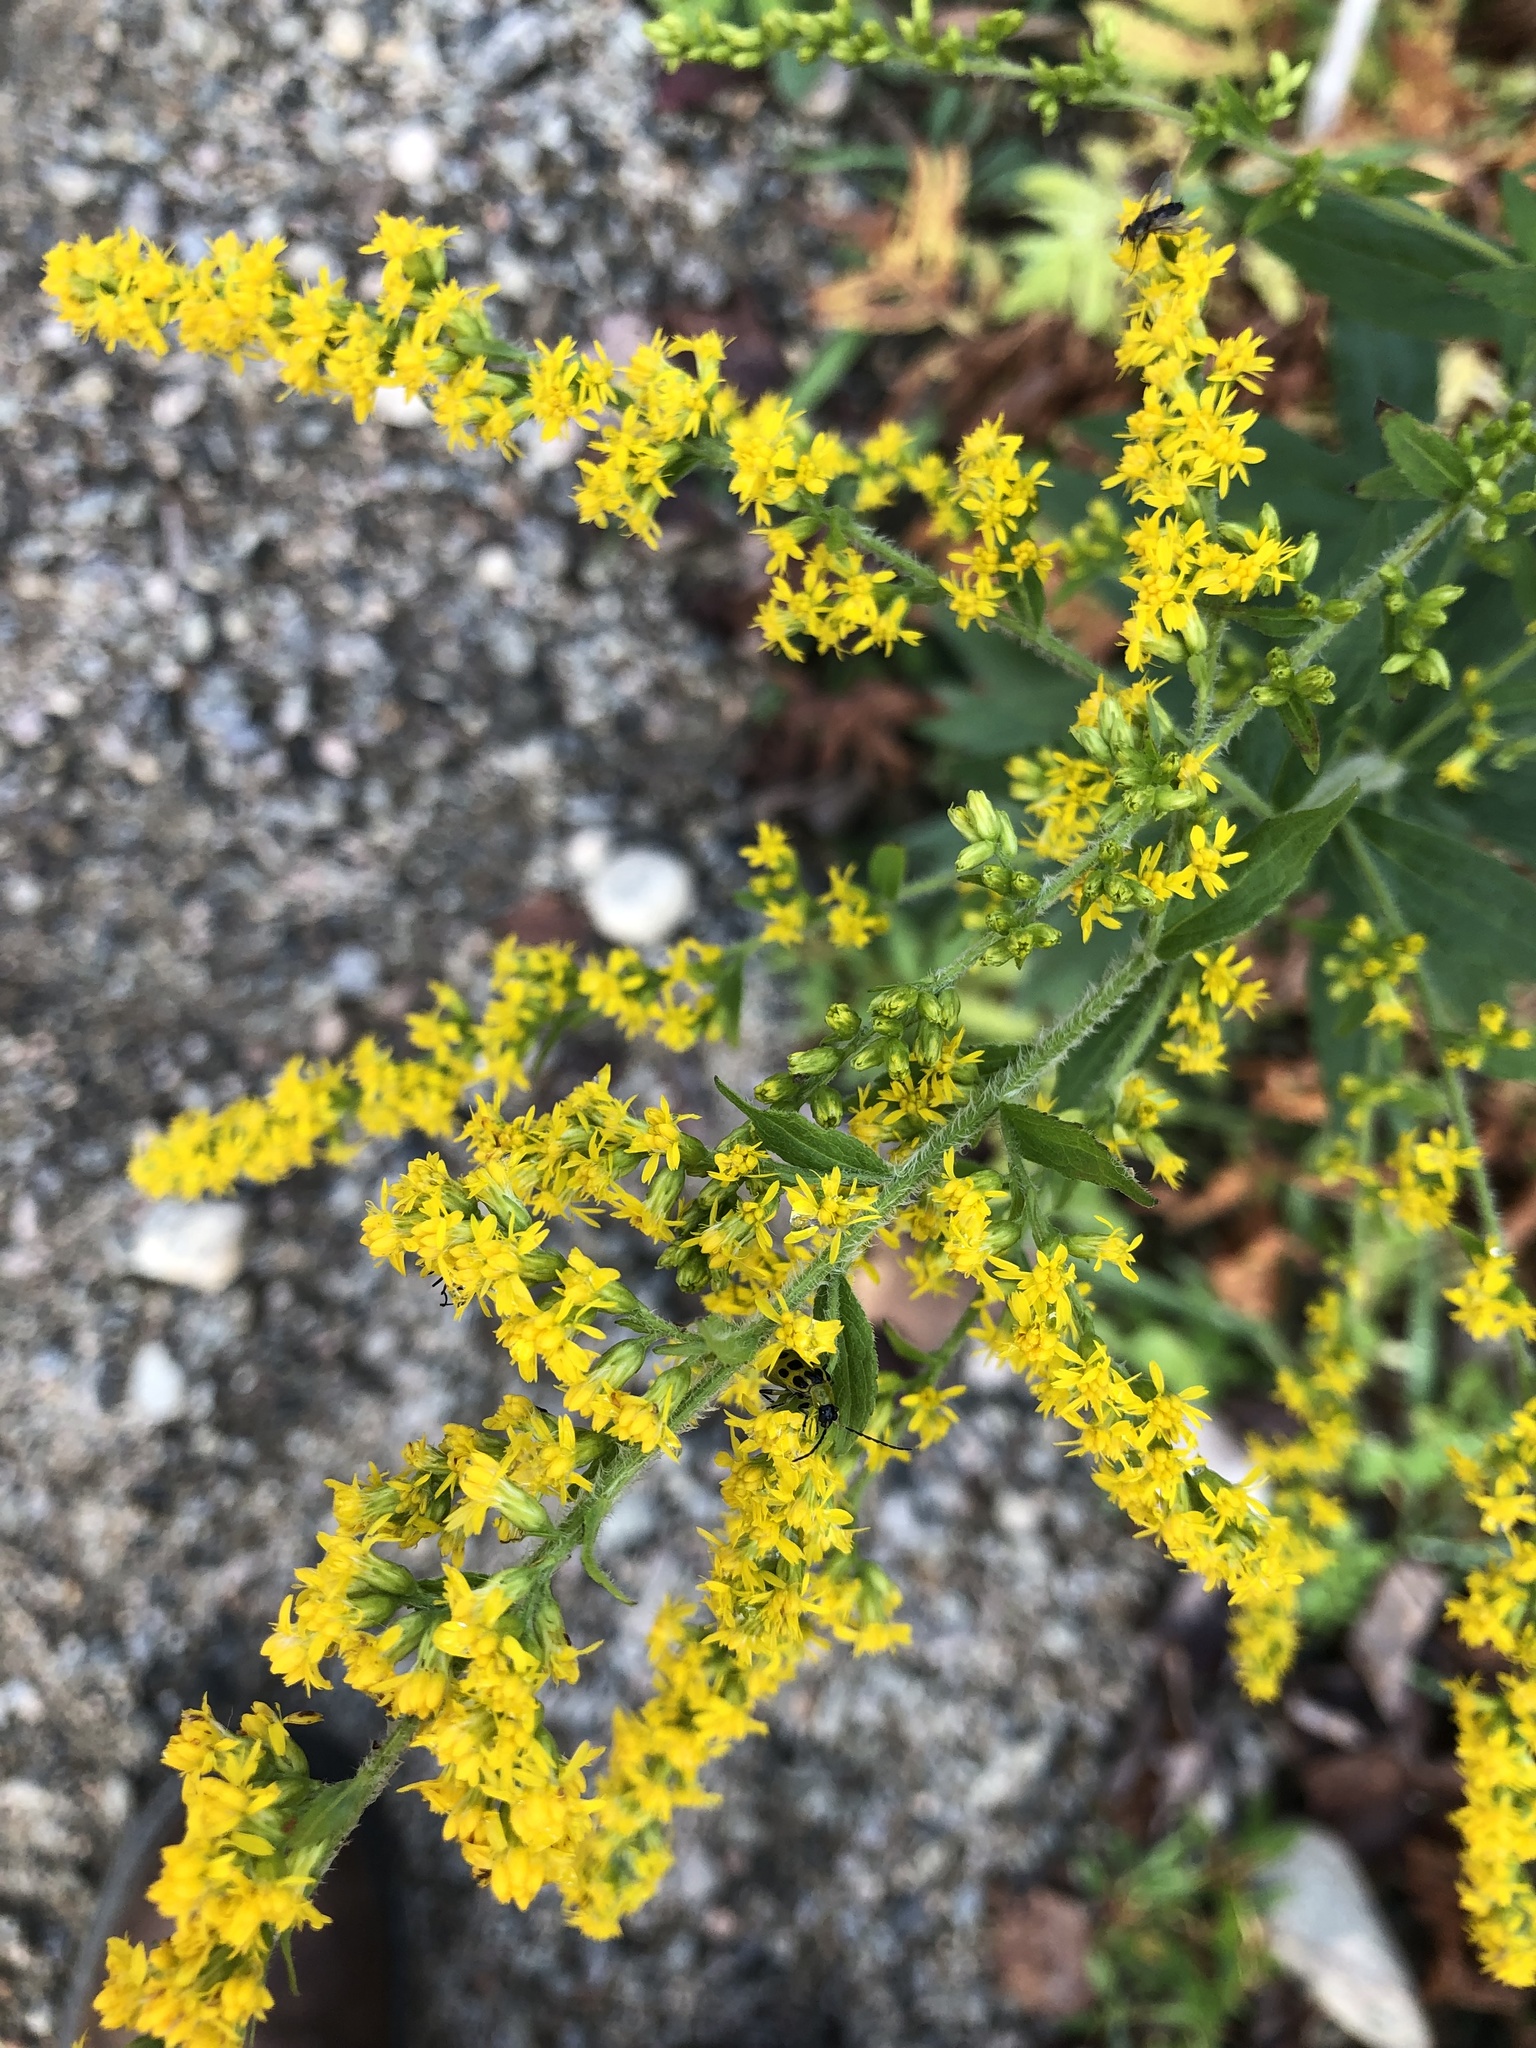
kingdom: Animalia
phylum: Arthropoda
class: Insecta
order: Coleoptera
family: Chrysomelidae
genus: Diabrotica
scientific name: Diabrotica undecimpunctata
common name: Spotted cucumber beetle
